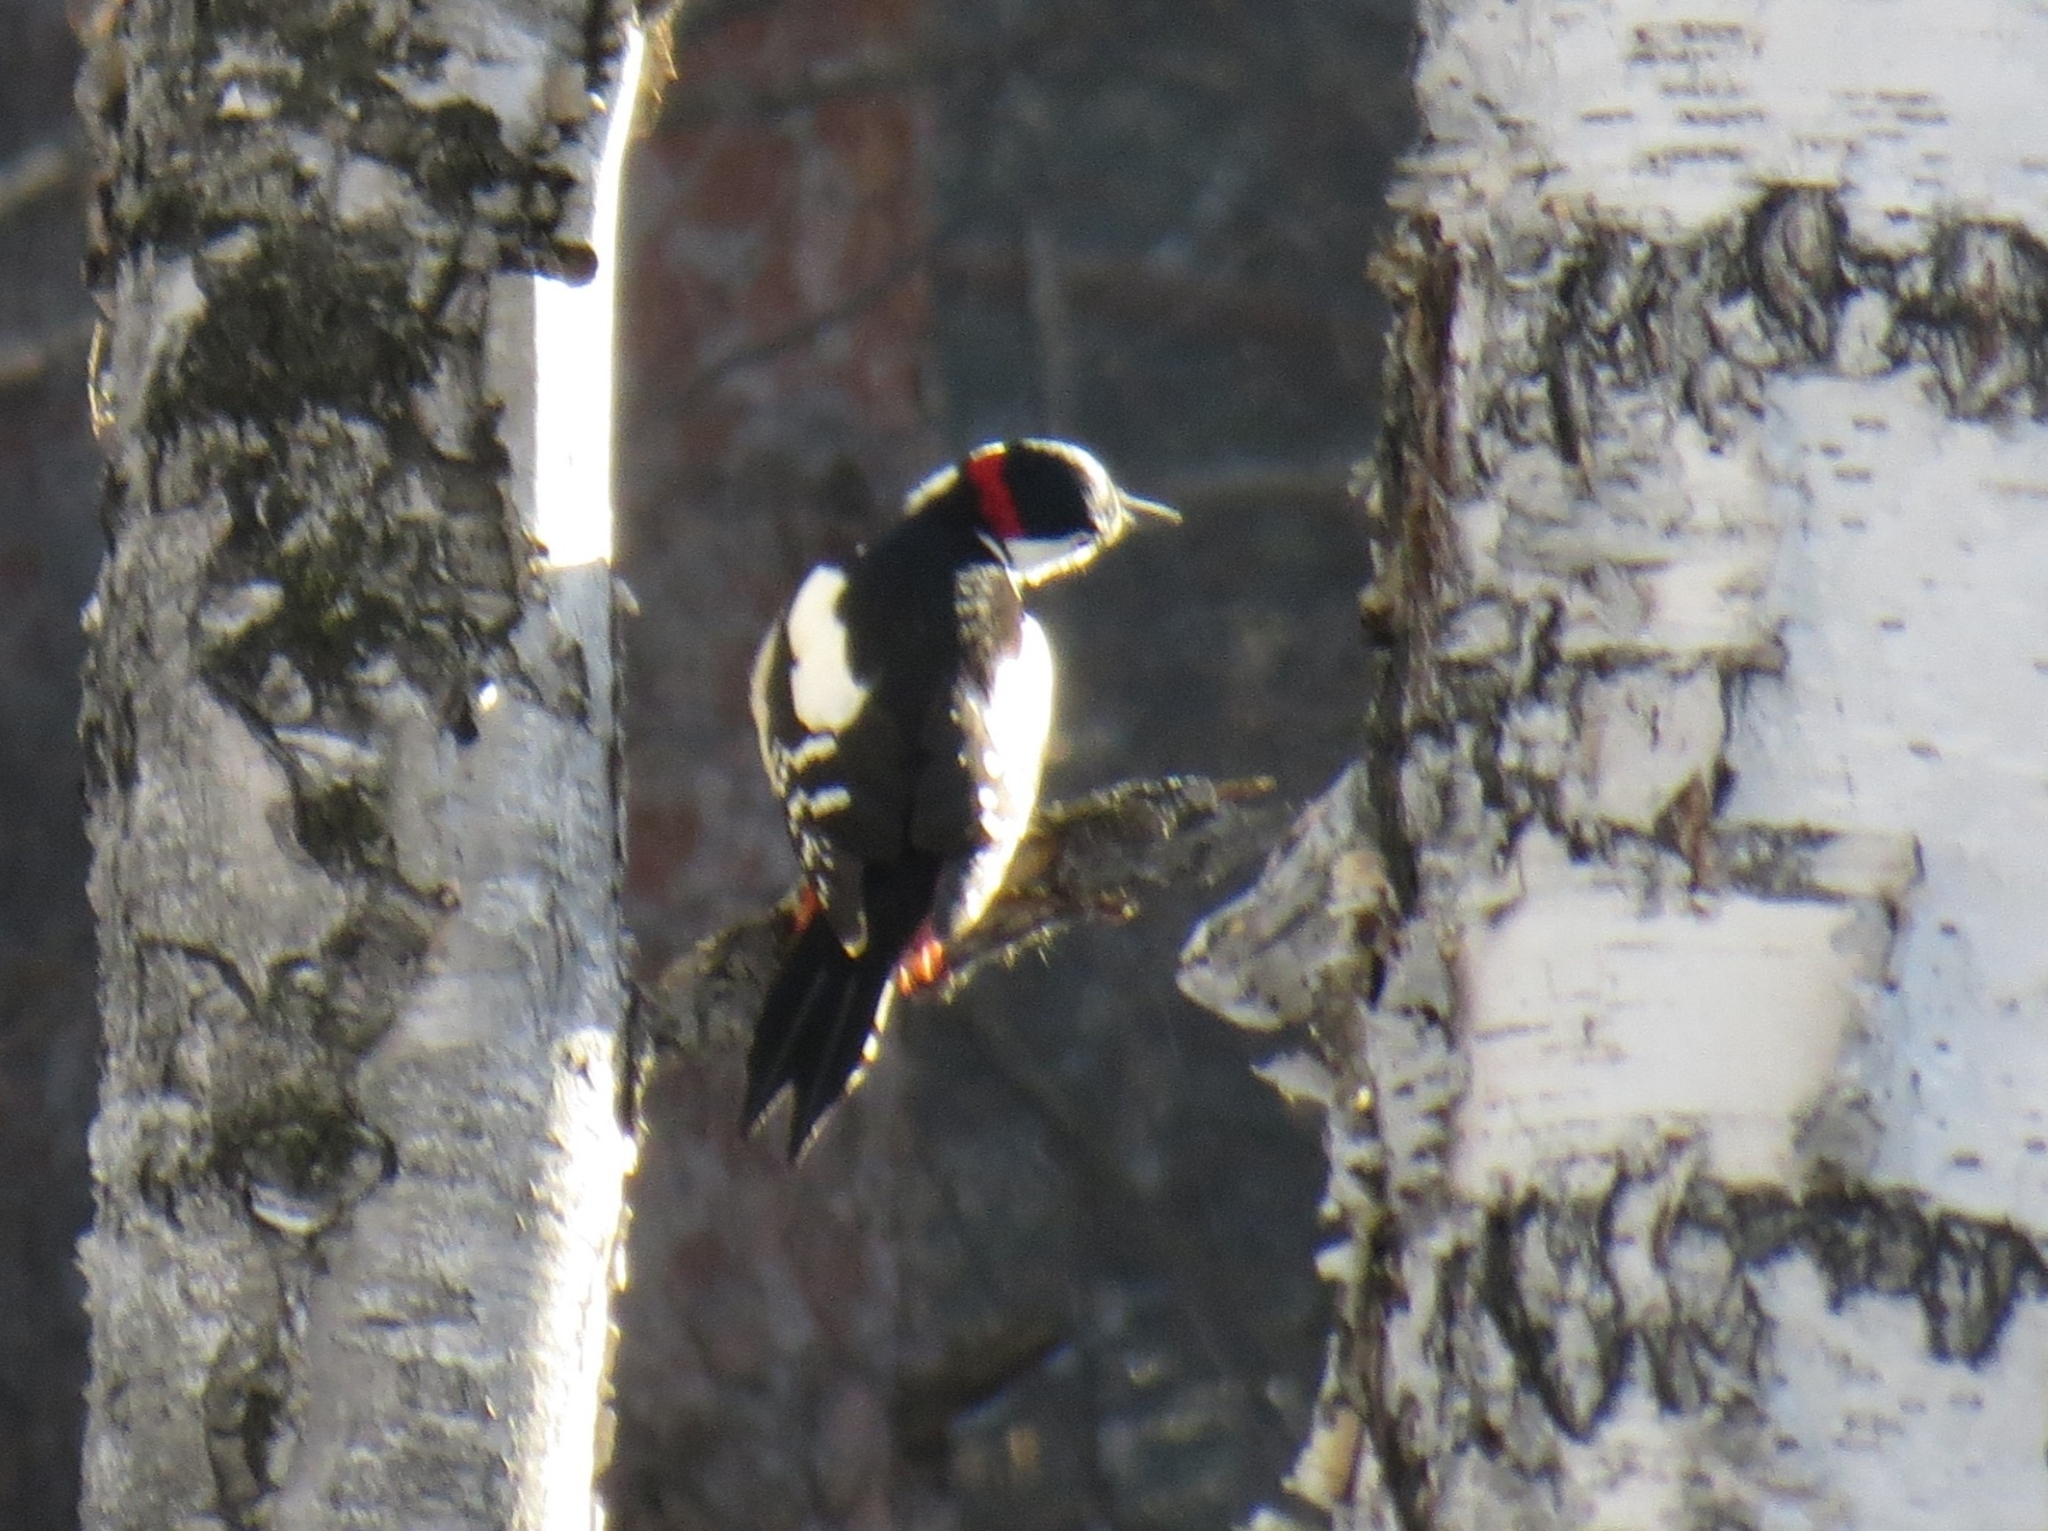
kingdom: Animalia
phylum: Chordata
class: Aves
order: Piciformes
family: Picidae
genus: Dendrocopos
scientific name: Dendrocopos major
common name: Great spotted woodpecker
